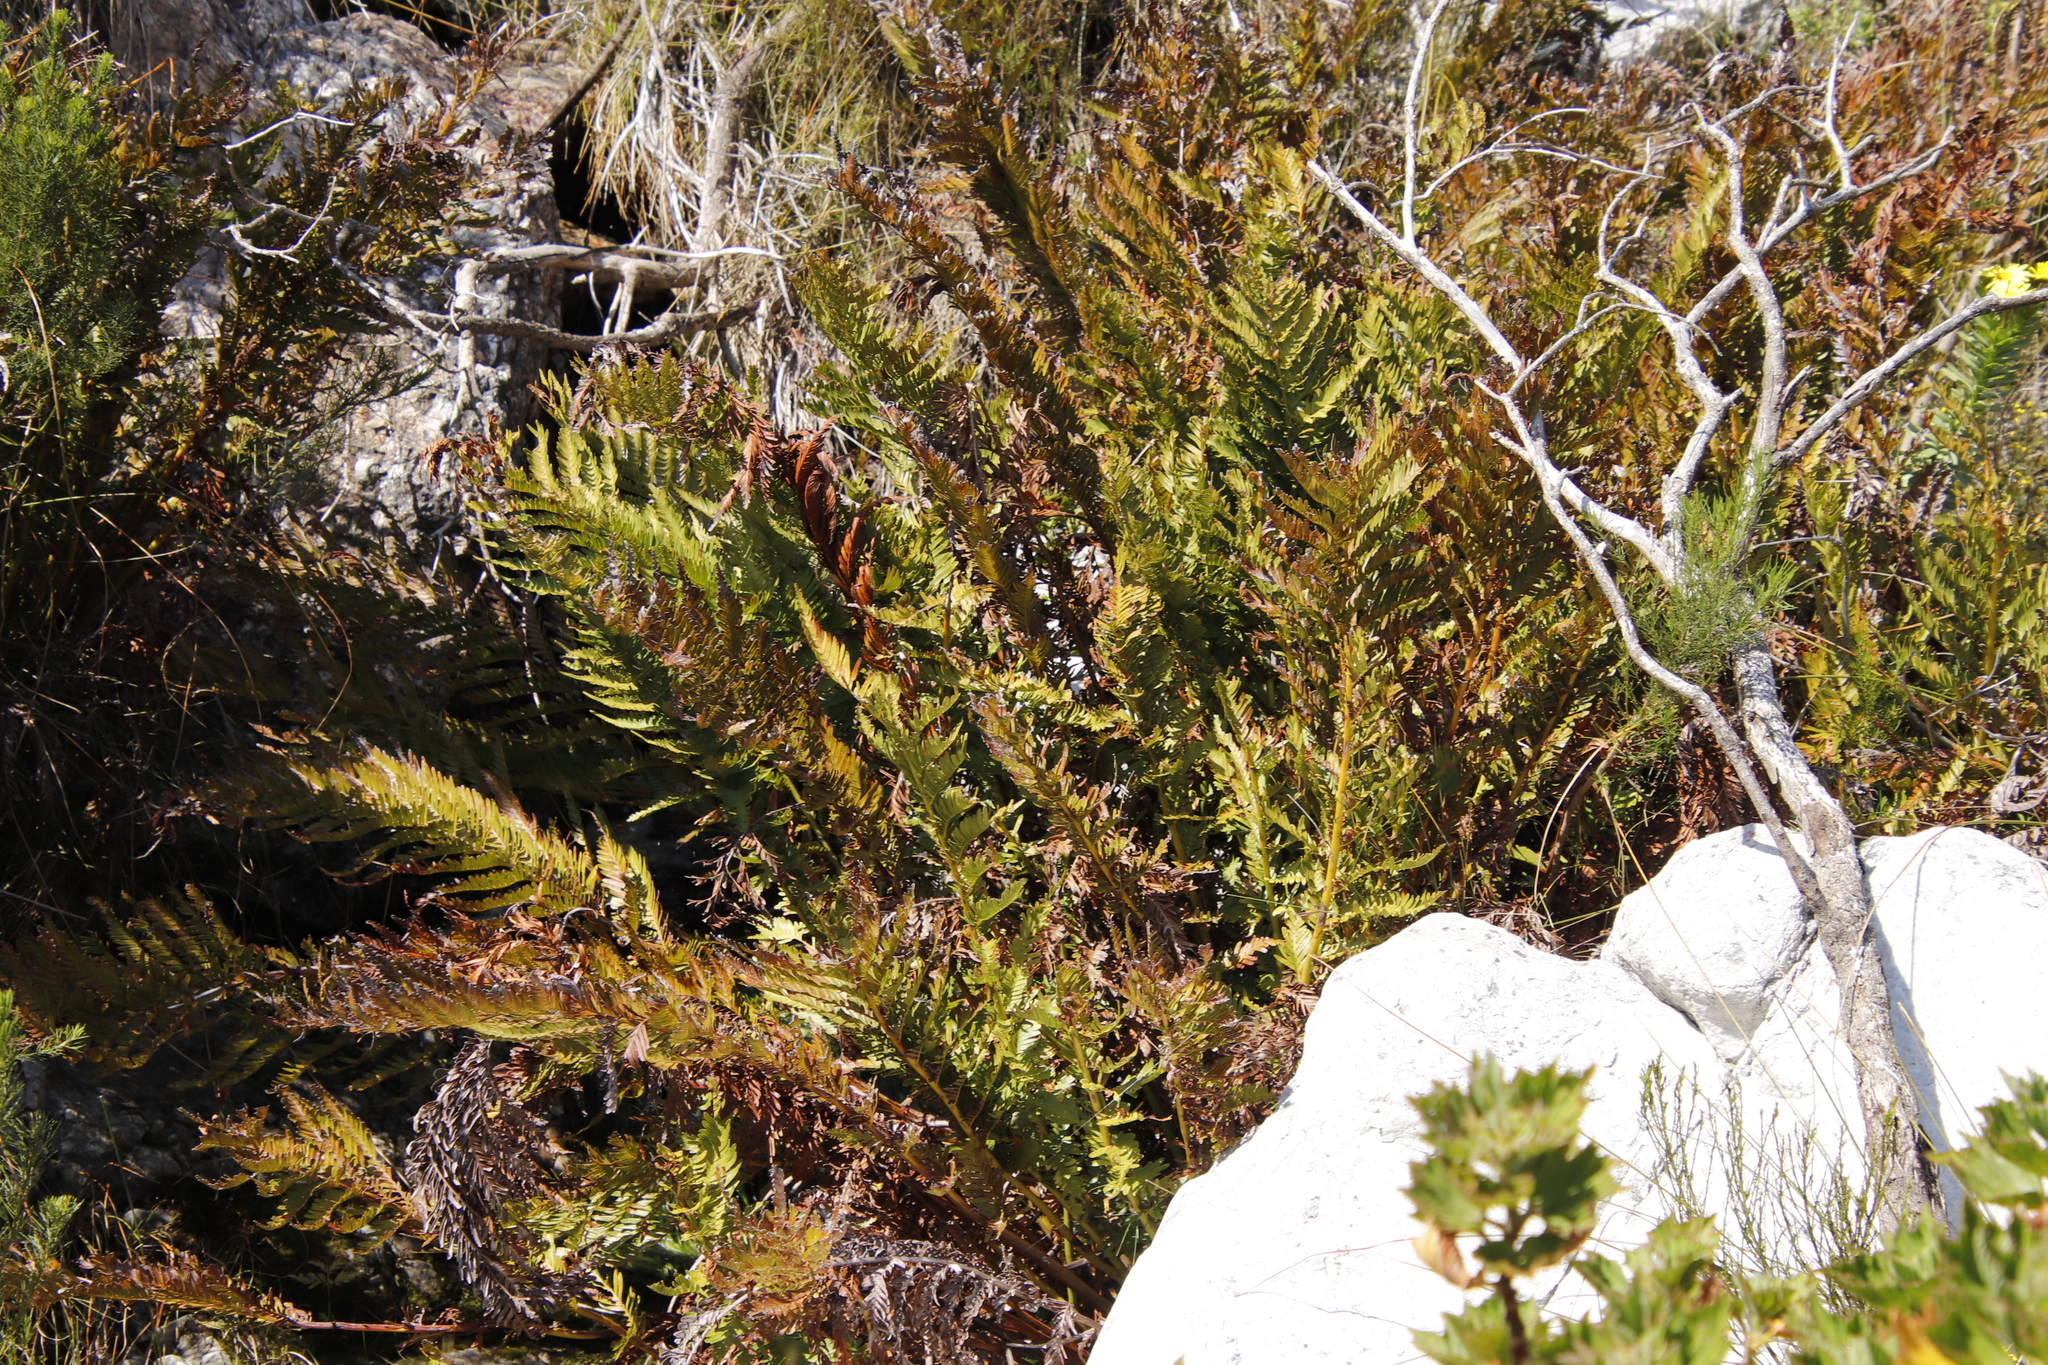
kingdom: Plantae
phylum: Tracheophyta
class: Polypodiopsida
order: Osmundales
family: Osmundaceae
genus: Todea
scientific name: Todea barbara
